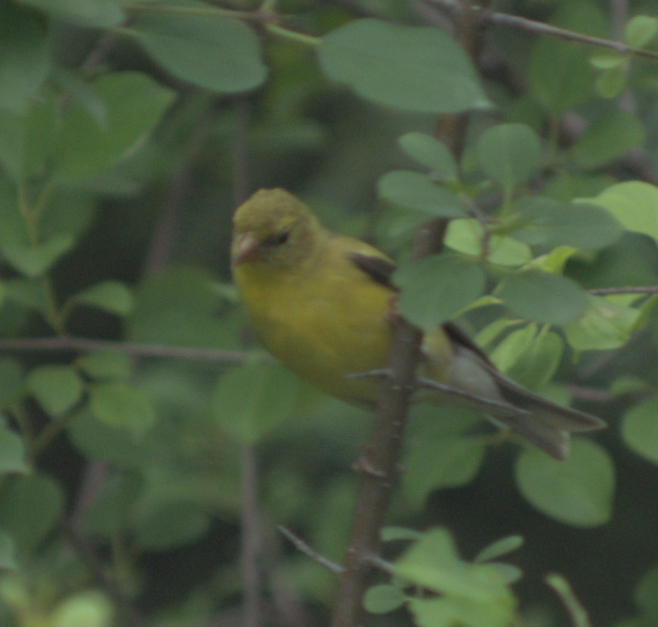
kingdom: Animalia
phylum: Chordata
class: Aves
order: Passeriformes
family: Fringillidae
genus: Spinus
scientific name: Spinus tristis
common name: American goldfinch
